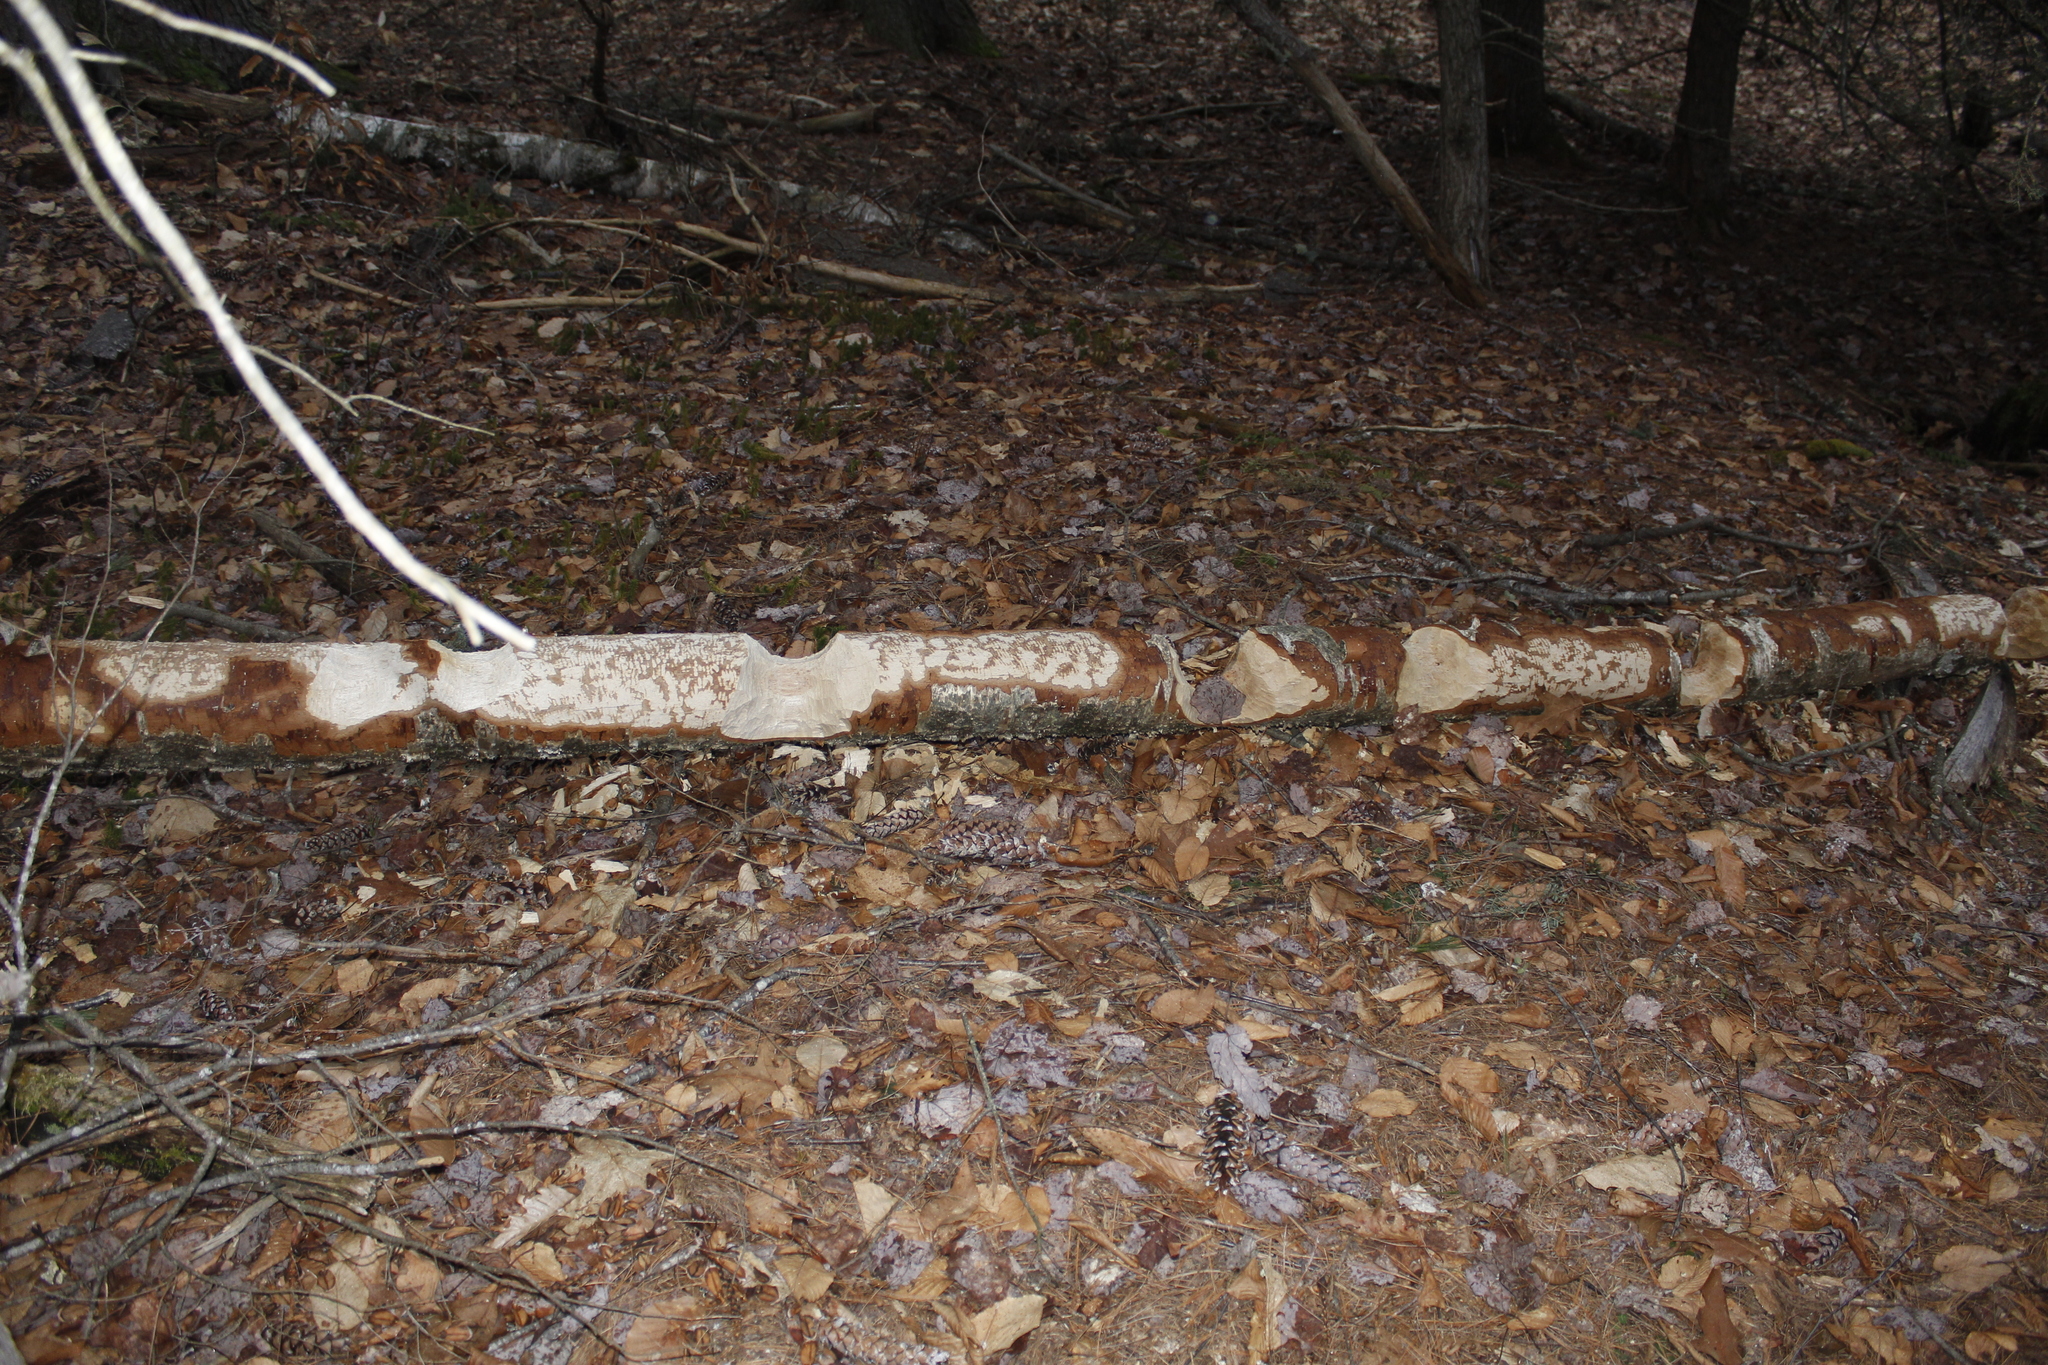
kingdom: Animalia
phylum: Chordata
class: Mammalia
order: Rodentia
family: Castoridae
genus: Castor
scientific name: Castor canadensis
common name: American beaver
